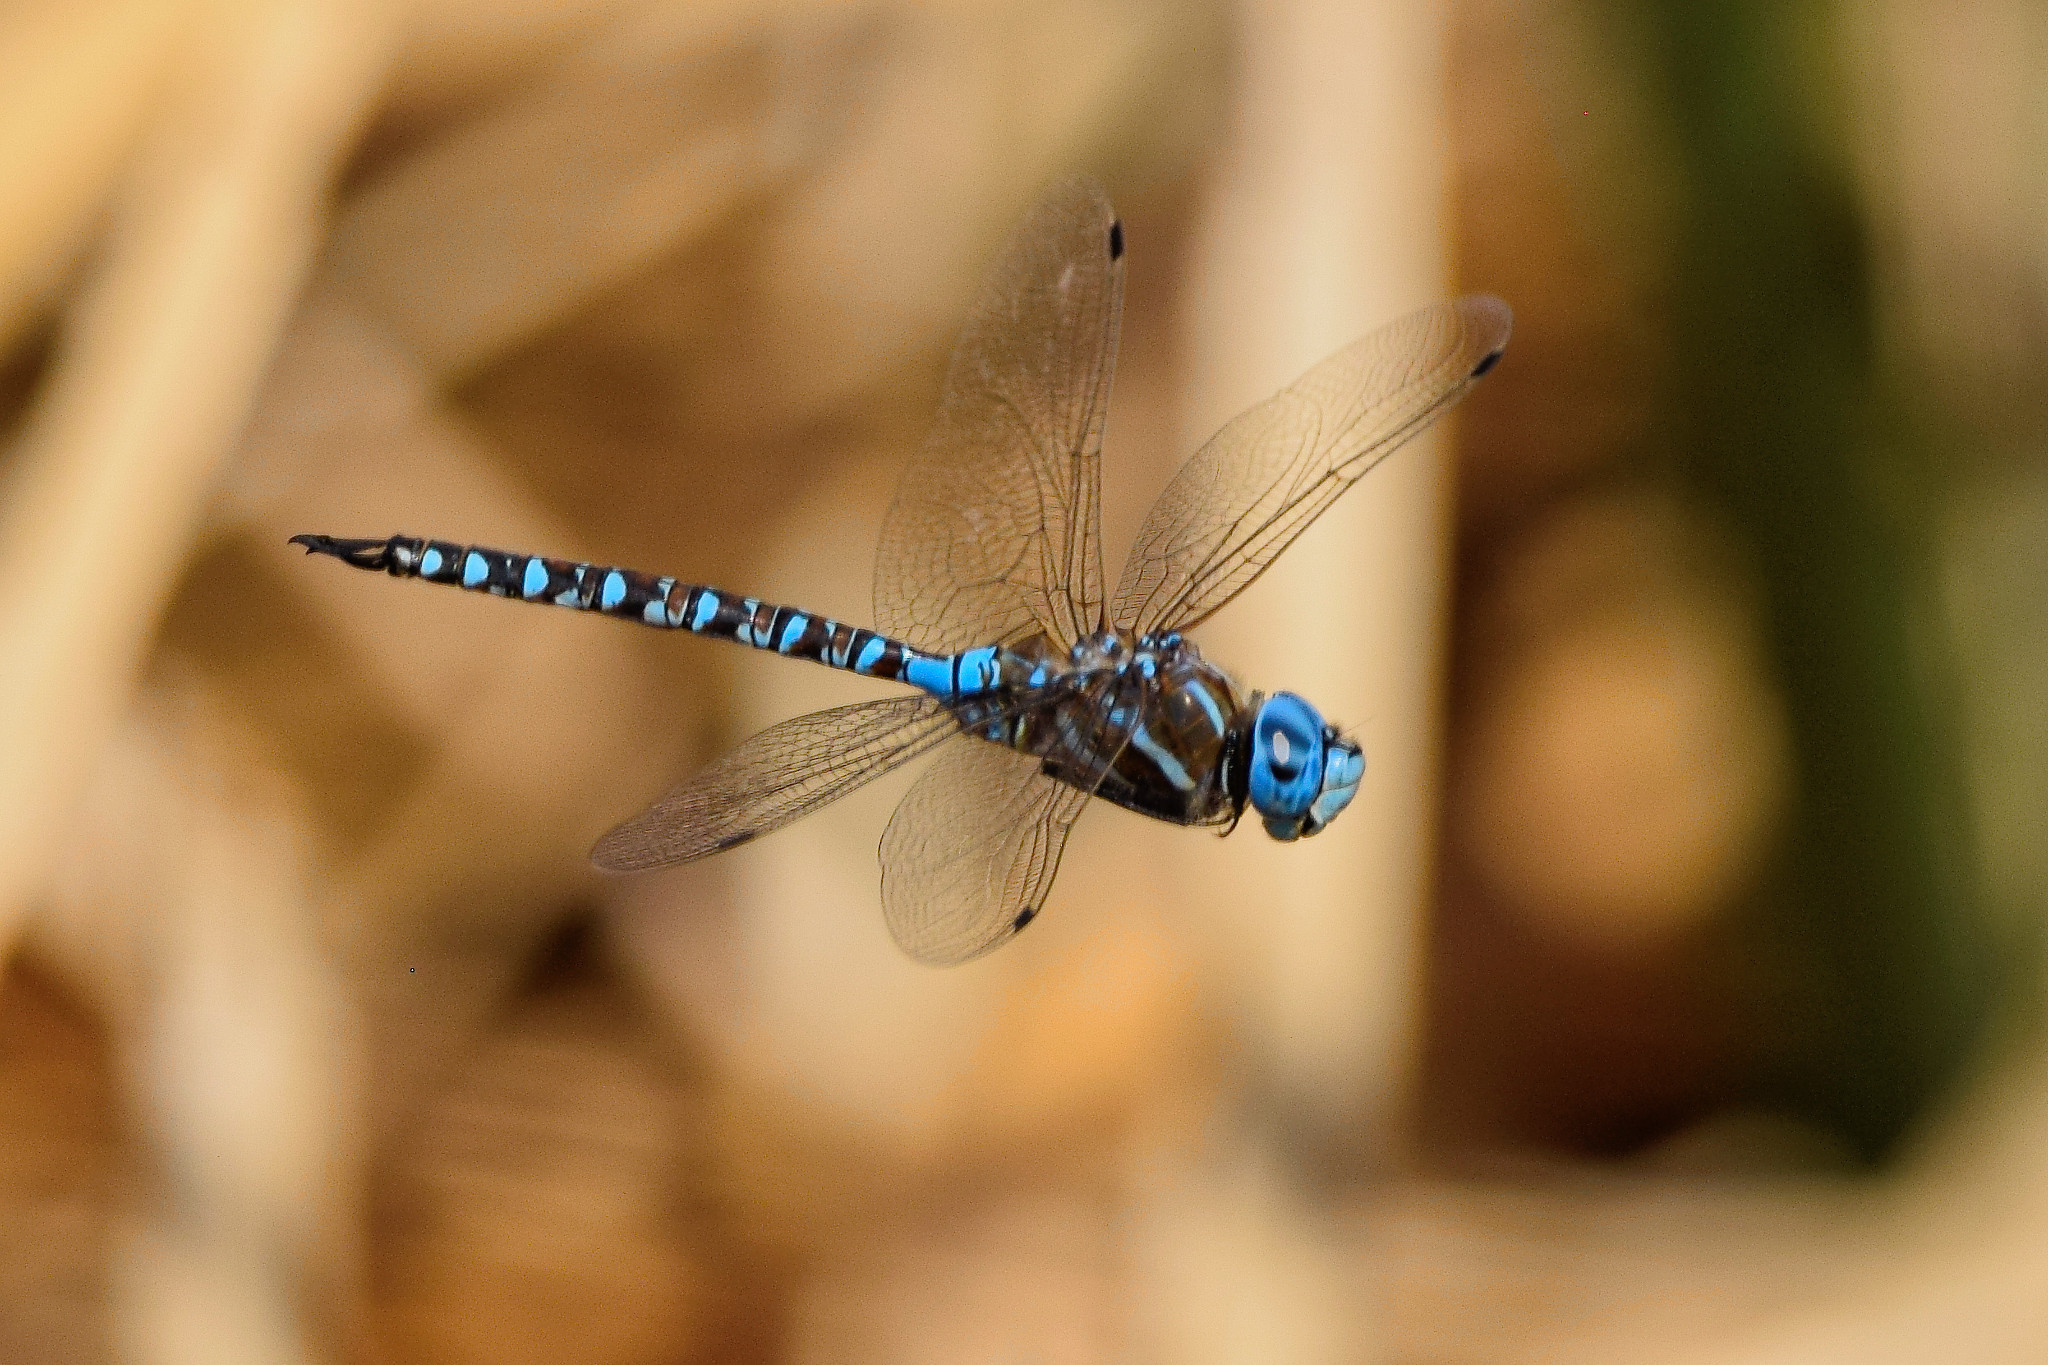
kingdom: Animalia
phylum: Arthropoda
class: Insecta
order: Odonata
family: Aeshnidae
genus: Rhionaeschna
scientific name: Rhionaeschna multicolor
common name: Blue-eyed darner
